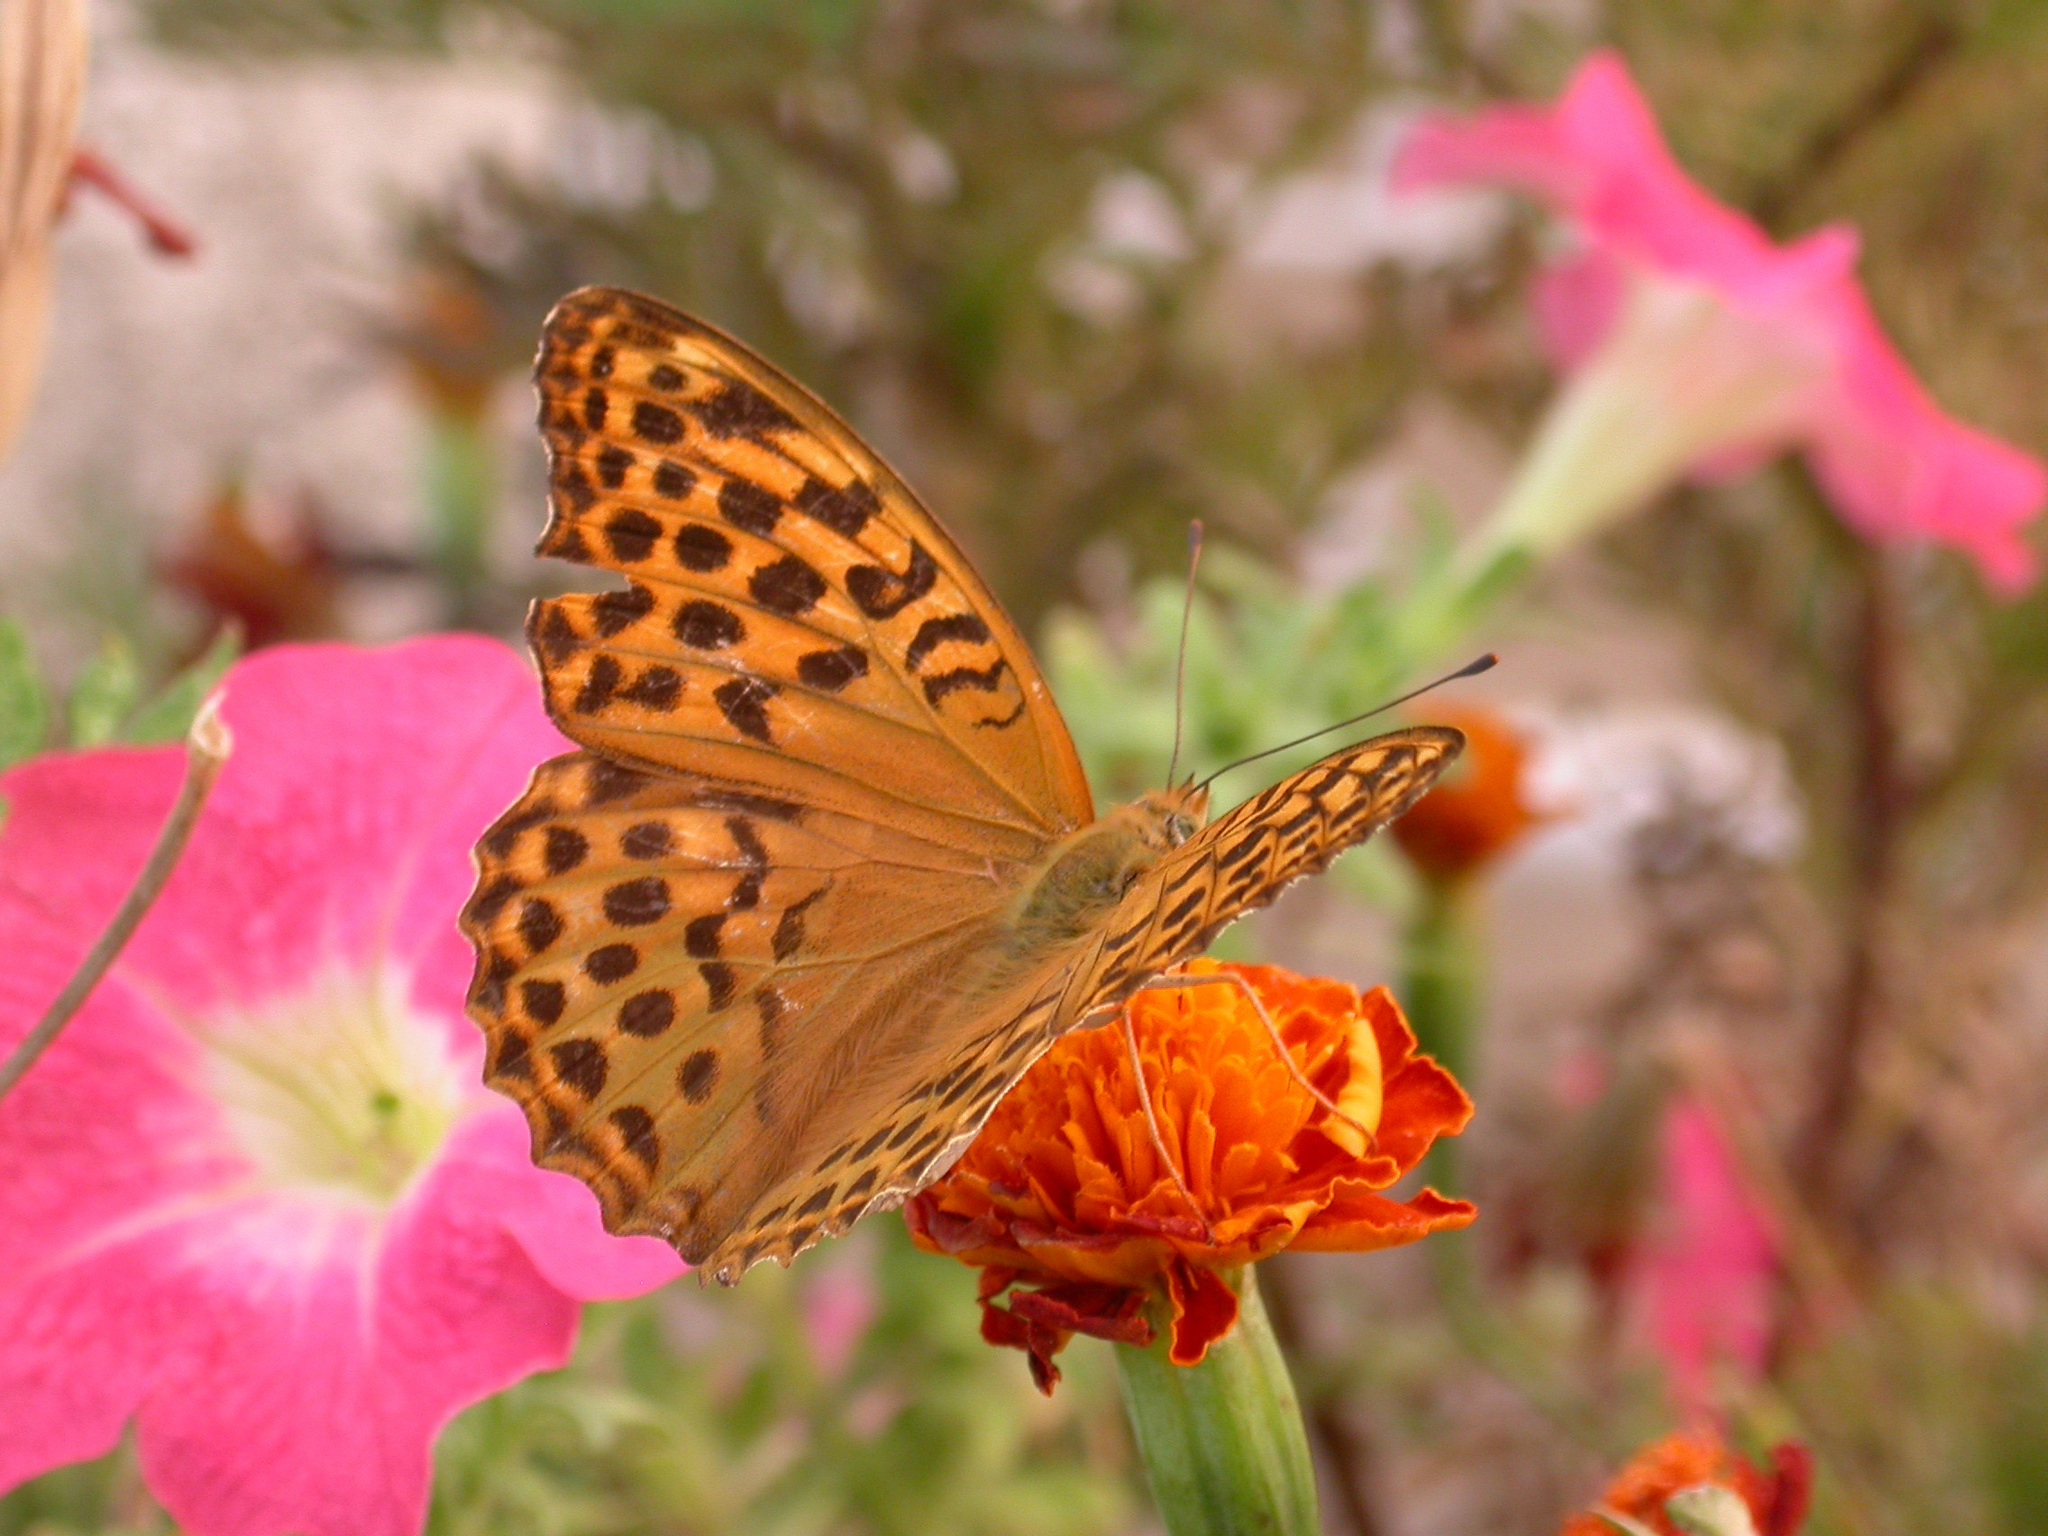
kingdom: Animalia
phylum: Arthropoda
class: Insecta
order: Lepidoptera
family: Nymphalidae
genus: Argynnis
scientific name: Argynnis paphia
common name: Silver-washed fritillary
